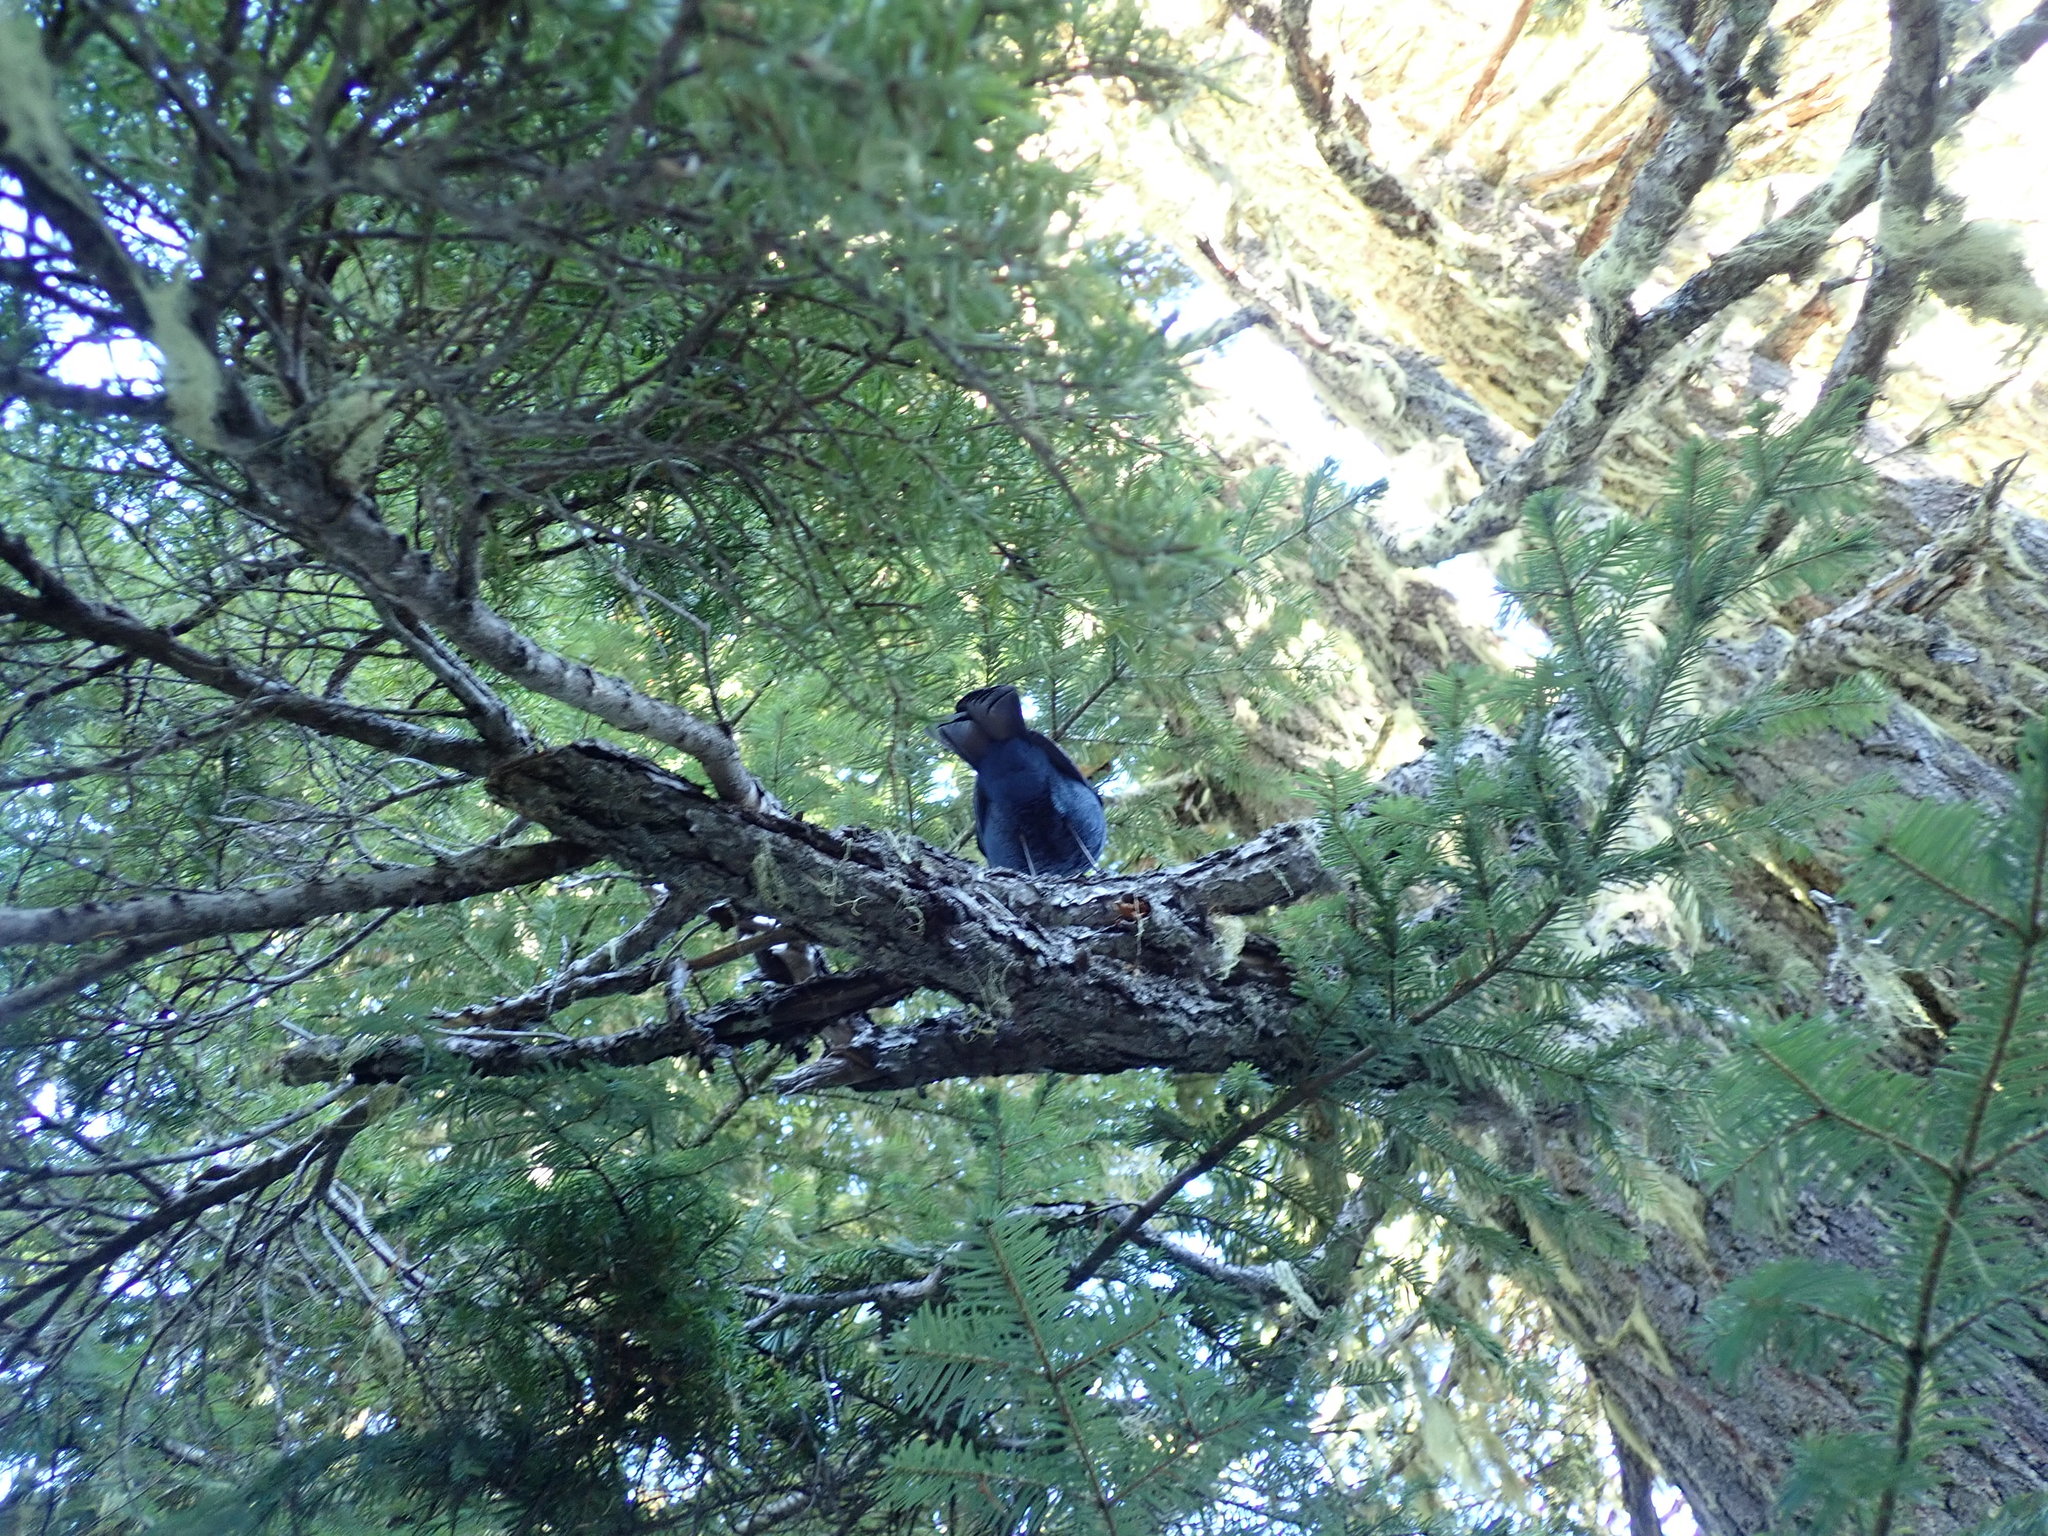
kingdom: Animalia
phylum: Chordata
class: Aves
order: Passeriformes
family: Corvidae
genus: Cyanocitta
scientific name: Cyanocitta stelleri
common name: Steller's jay
